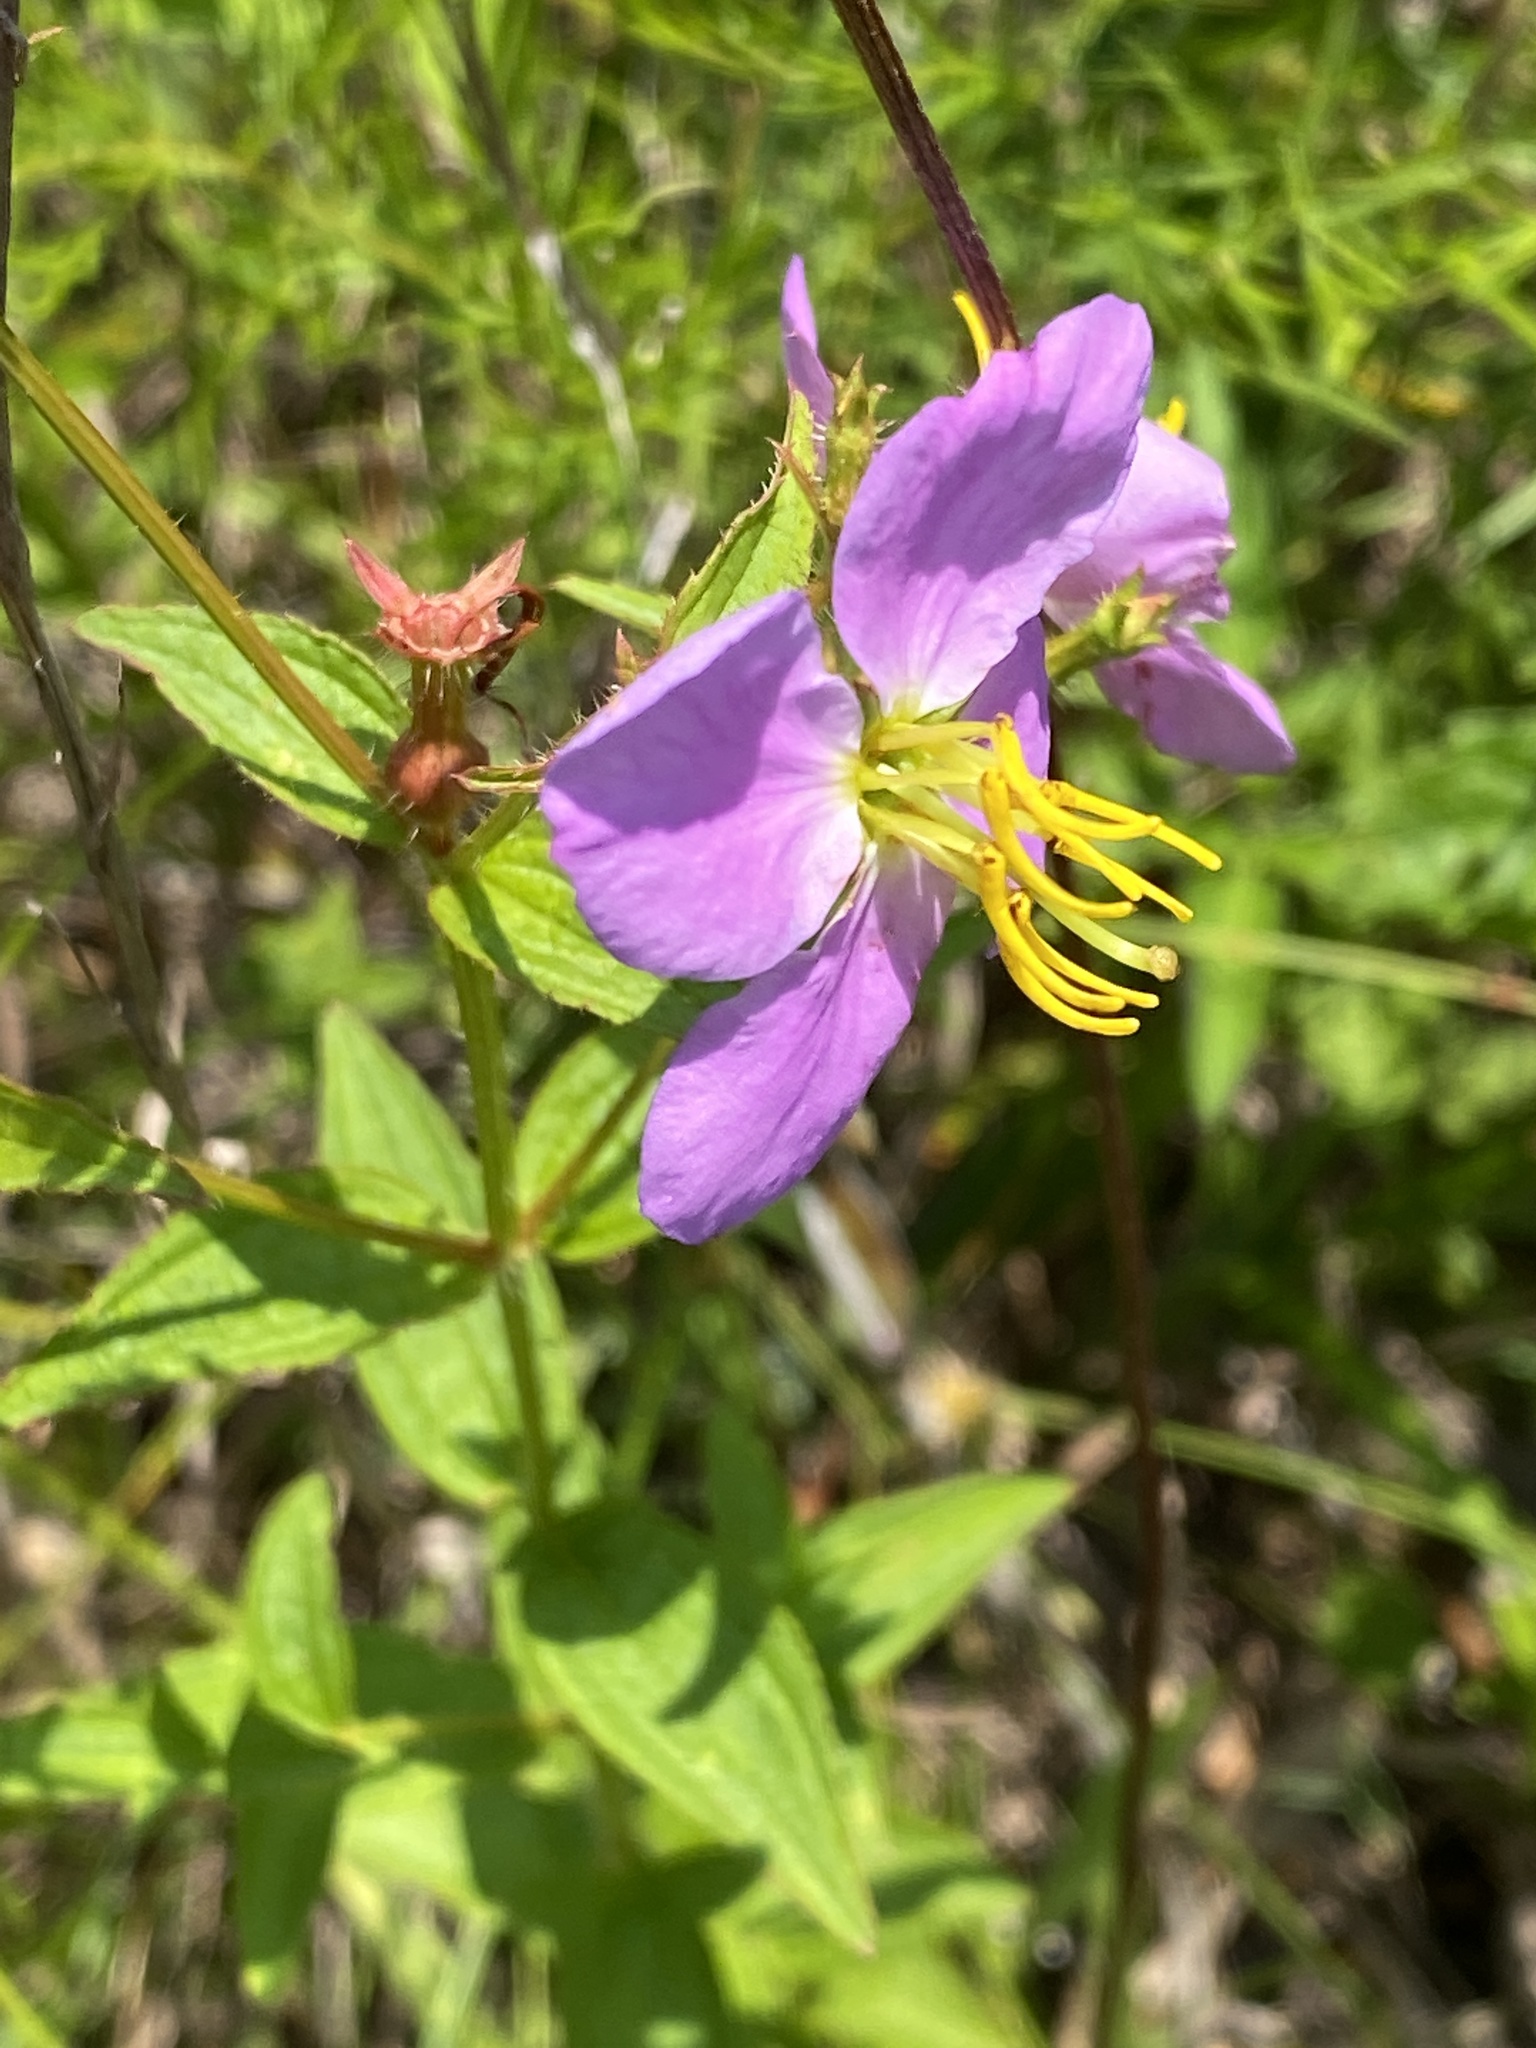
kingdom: Plantae
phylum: Tracheophyta
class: Magnoliopsida
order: Myrtales
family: Melastomataceae
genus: Rhexia
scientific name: Rhexia mariana
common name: Dull meadow-pitcher
